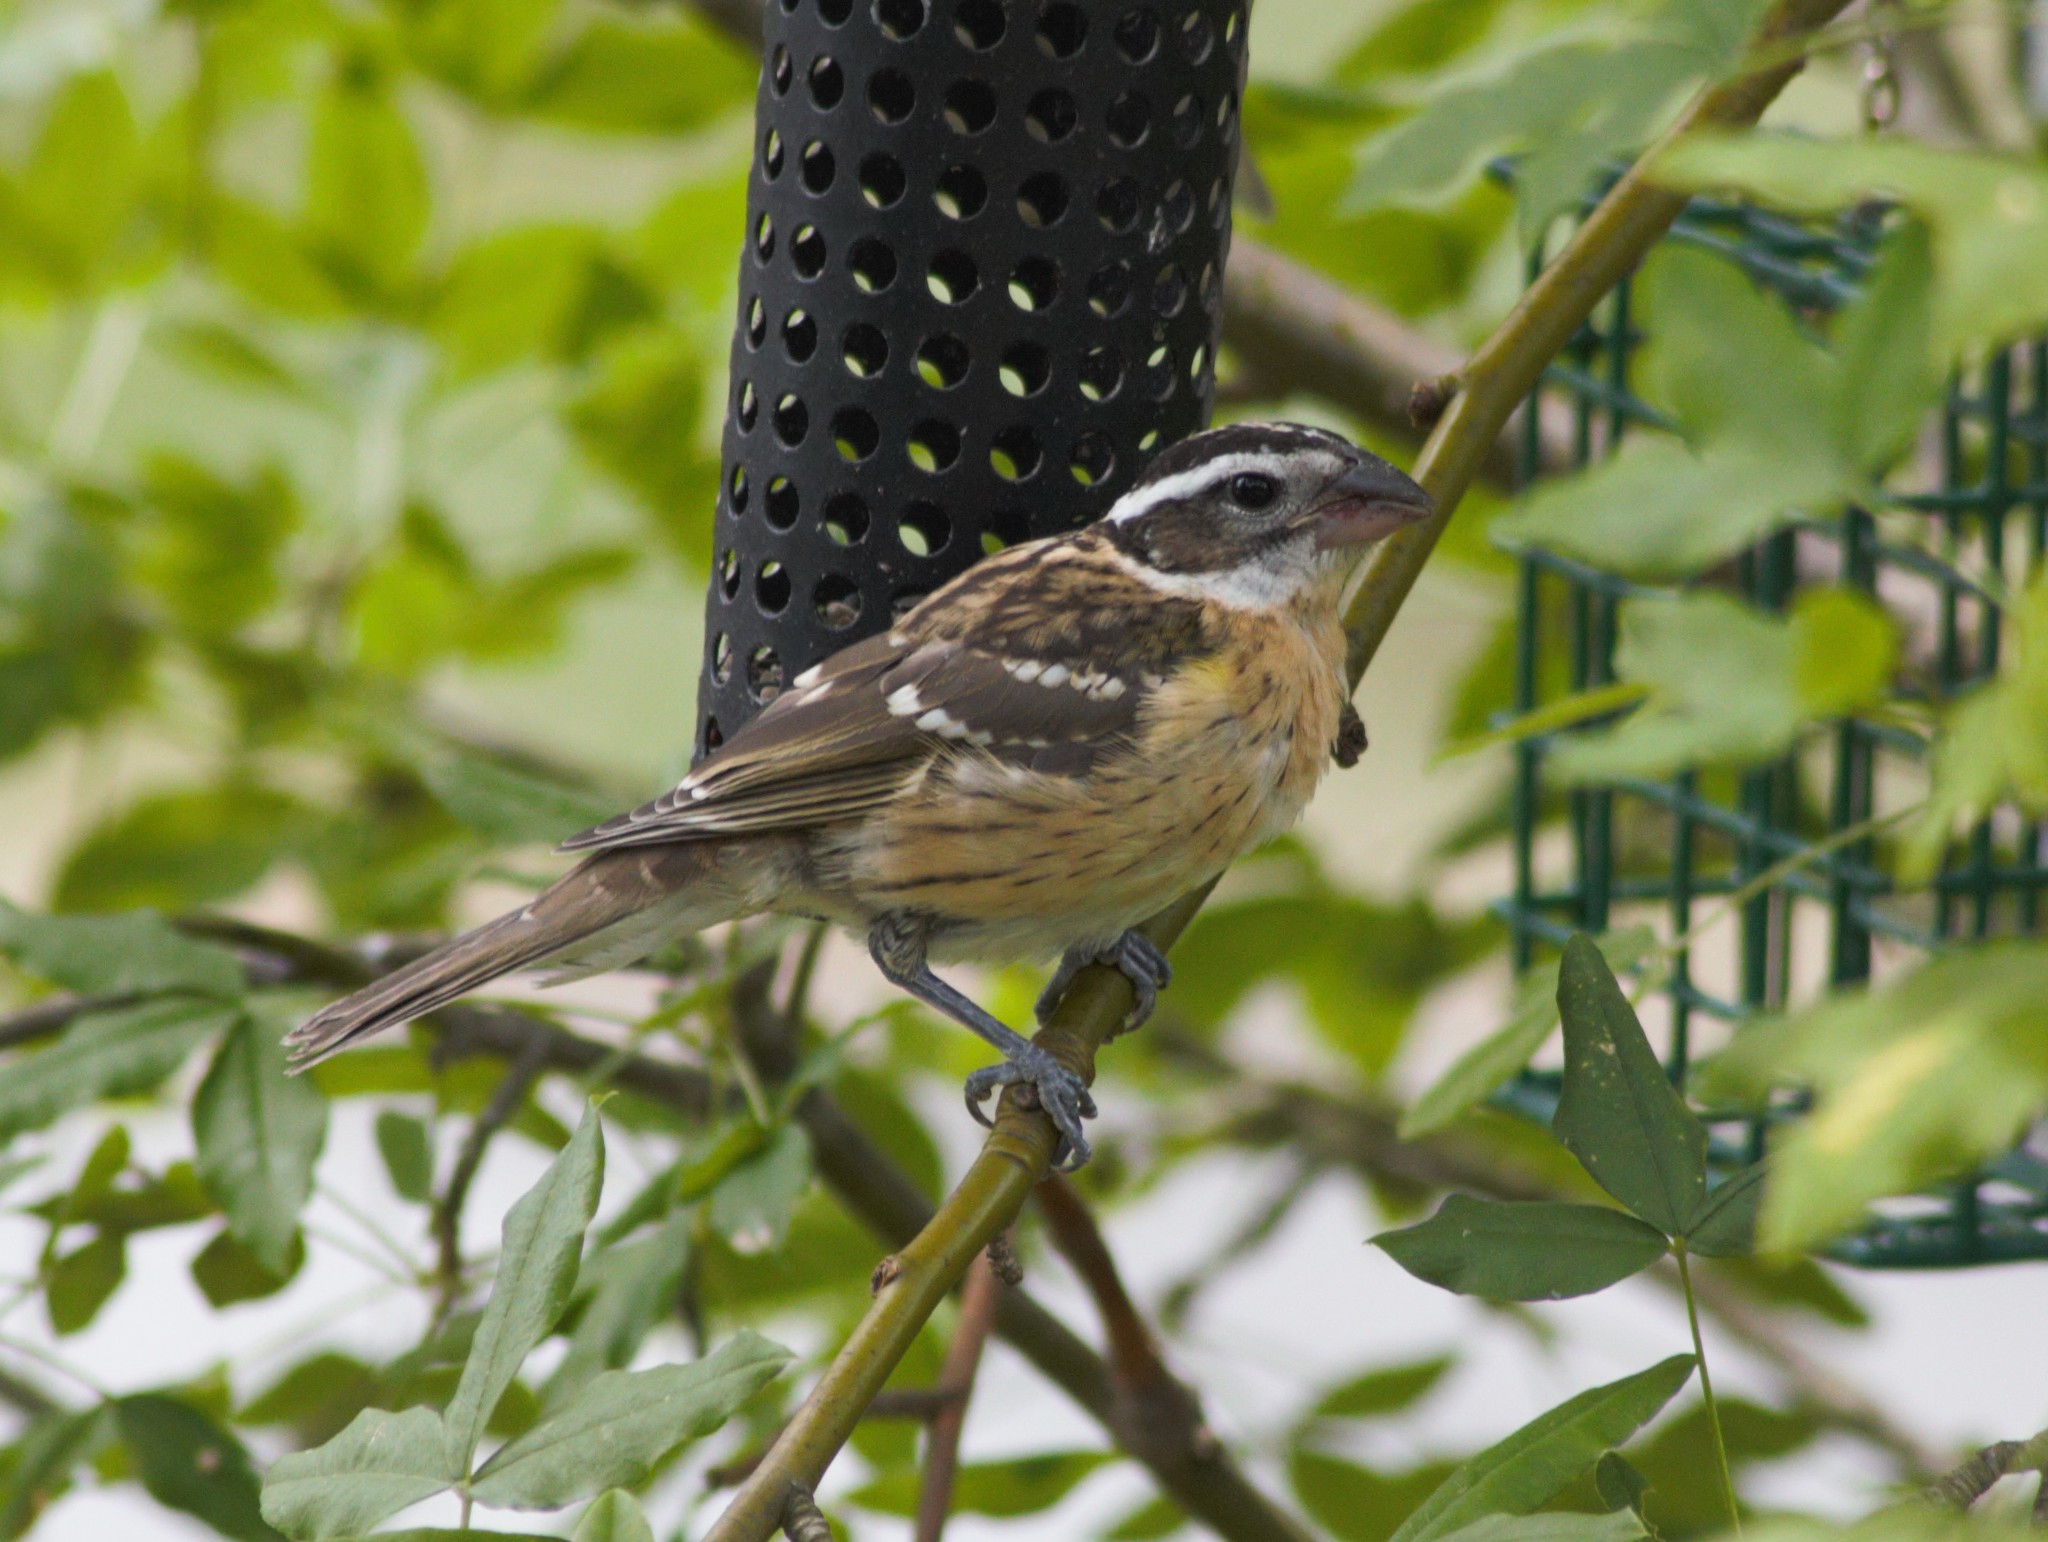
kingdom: Animalia
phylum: Chordata
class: Aves
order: Passeriformes
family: Cardinalidae
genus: Pheucticus
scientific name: Pheucticus melanocephalus
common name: Black-headed grosbeak
